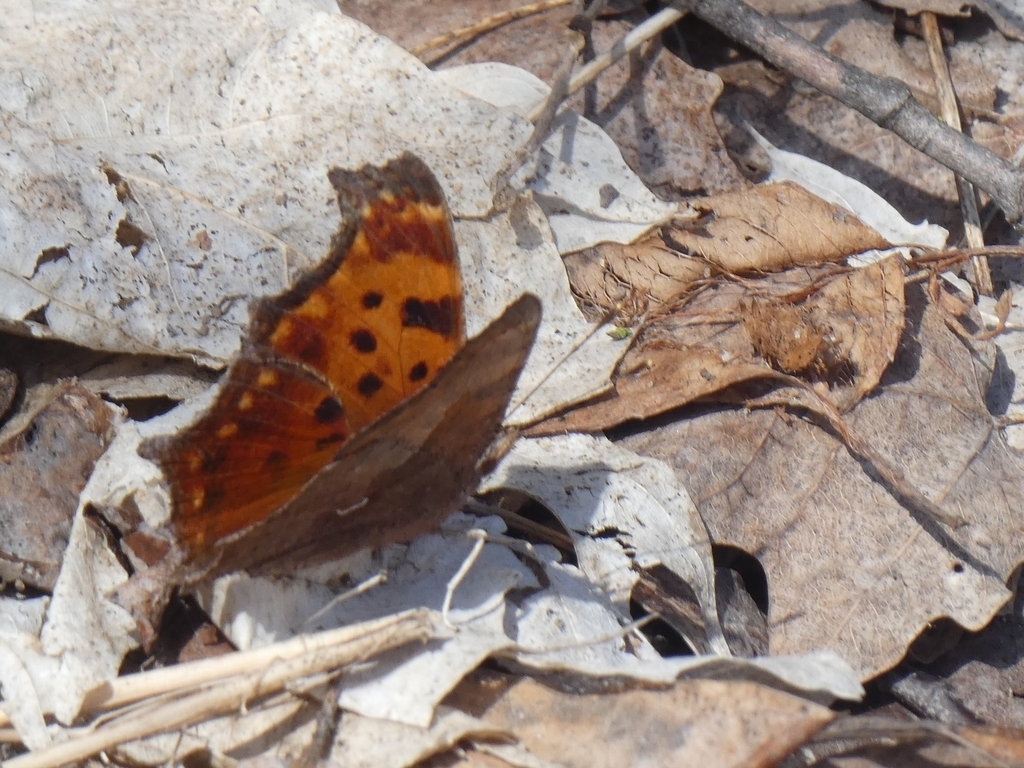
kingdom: Animalia
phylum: Arthropoda
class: Insecta
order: Lepidoptera
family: Nymphalidae
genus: Polygonia
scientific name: Polygonia comma
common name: Eastern comma
